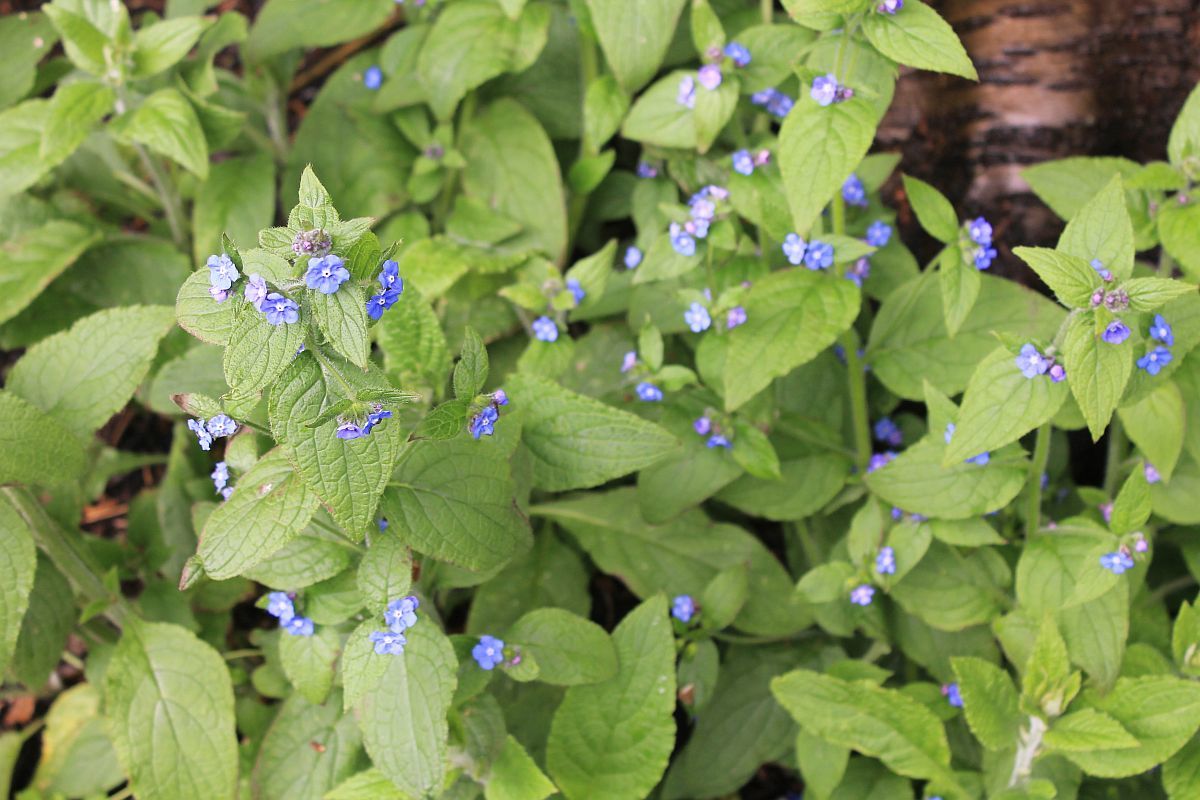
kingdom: Plantae
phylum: Tracheophyta
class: Magnoliopsida
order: Boraginales
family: Boraginaceae
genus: Pentaglottis
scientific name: Pentaglottis sempervirens
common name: Green alkanet
